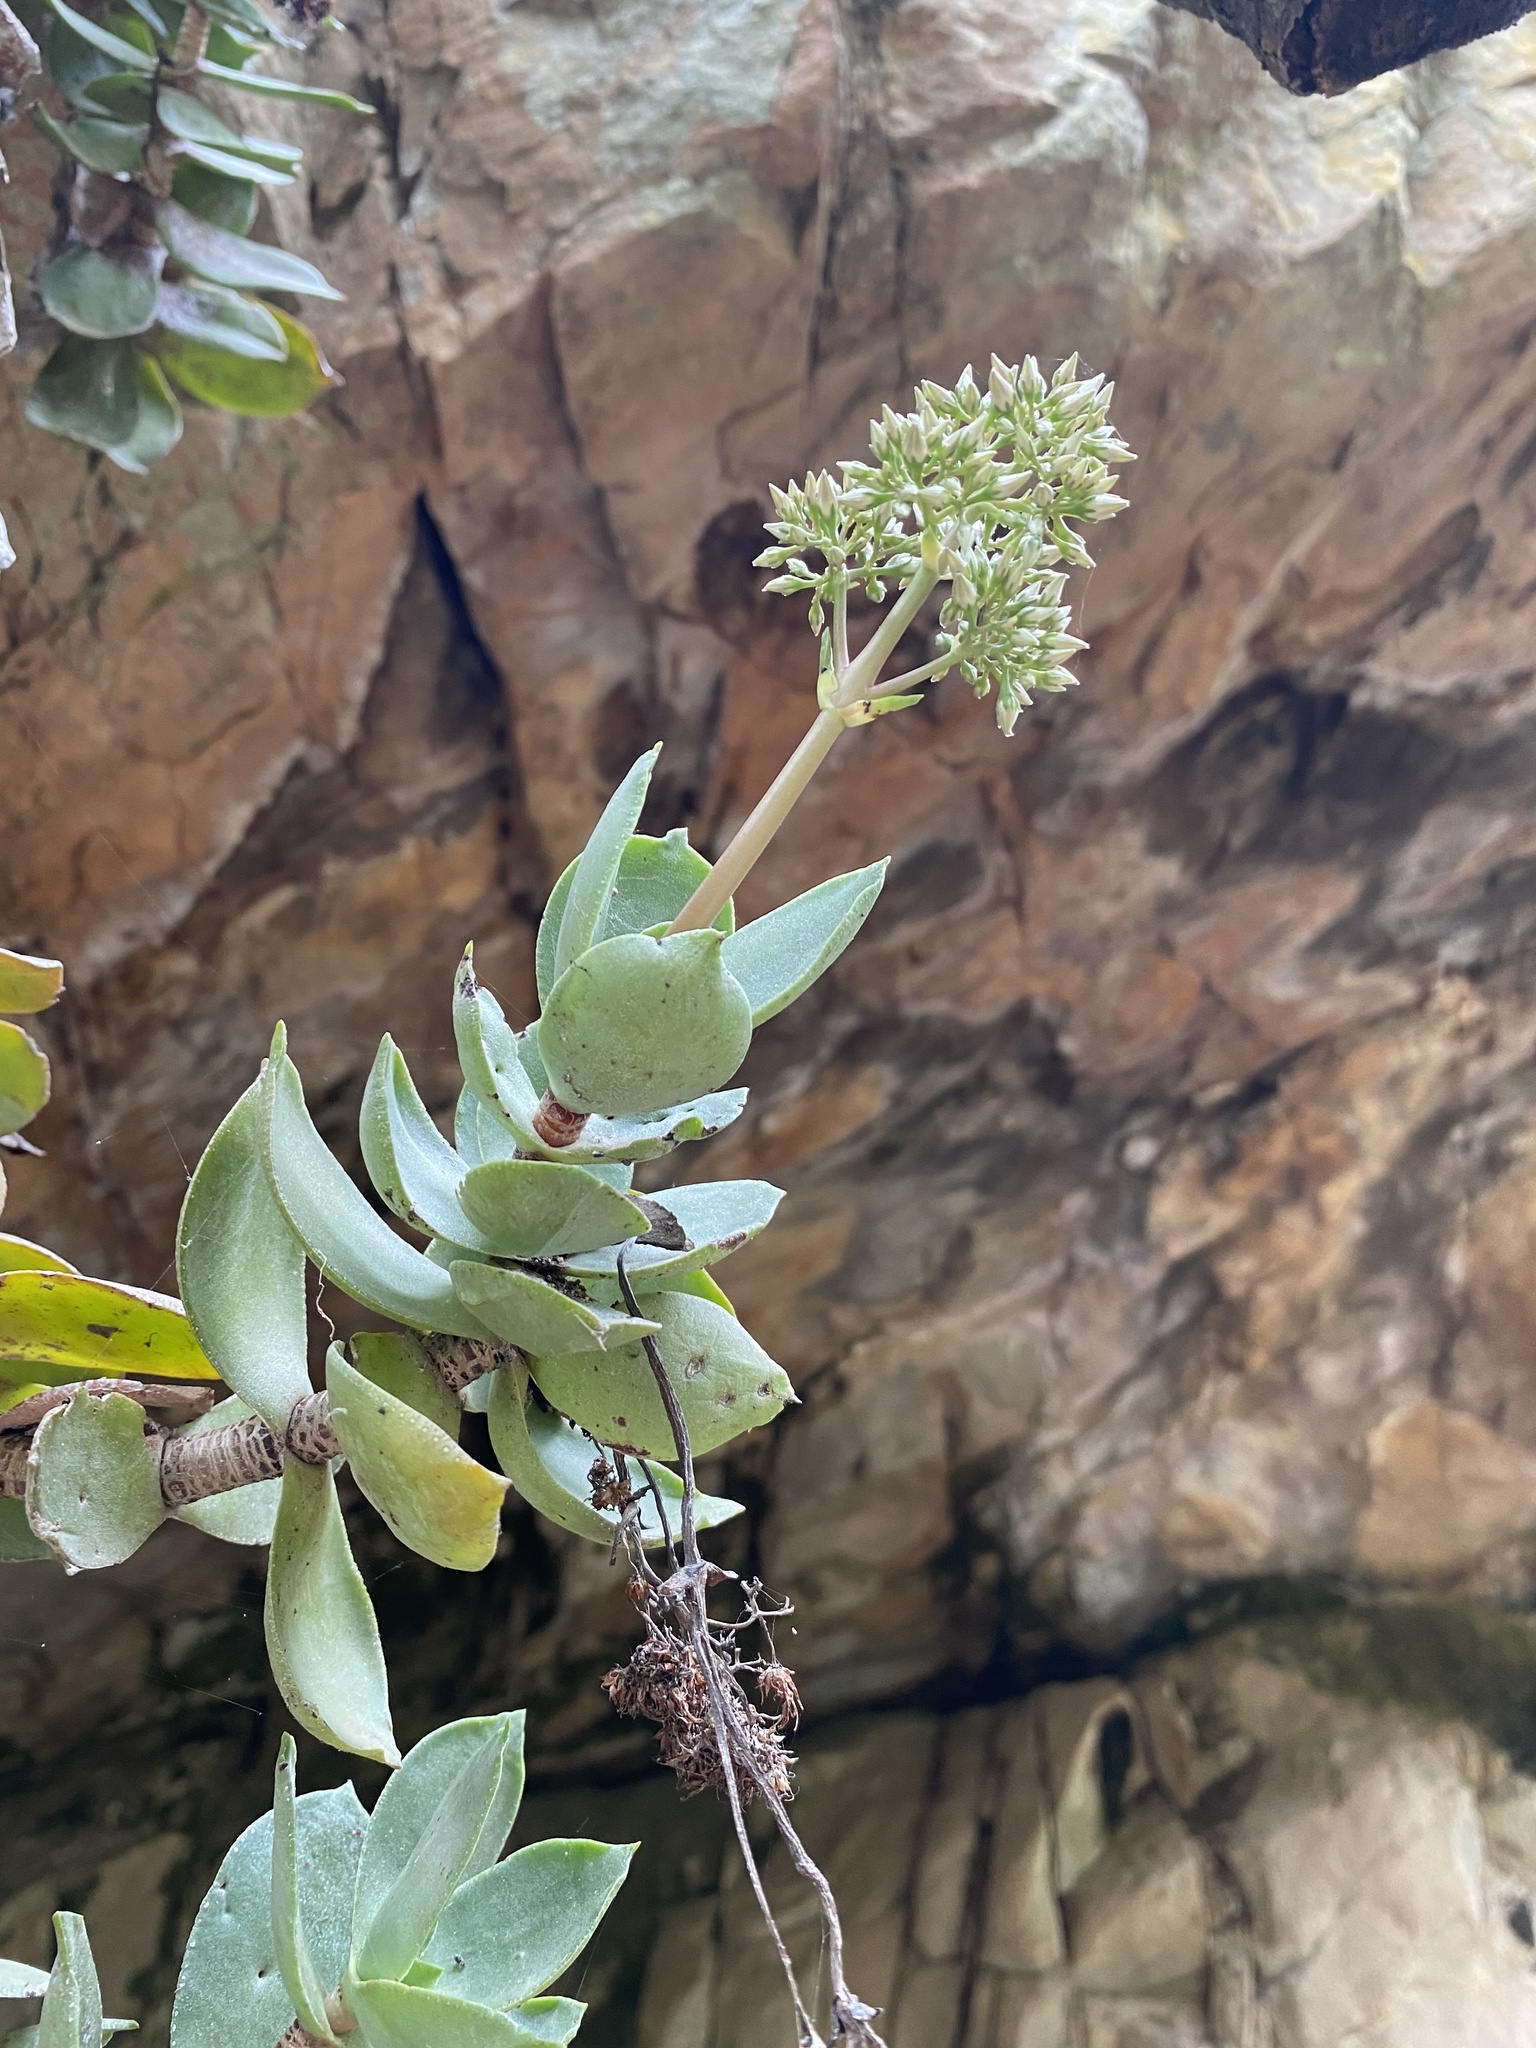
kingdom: Plantae
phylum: Tracheophyta
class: Magnoliopsida
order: Saxifragales
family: Crassulaceae
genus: Crassula
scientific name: Crassula lactea
